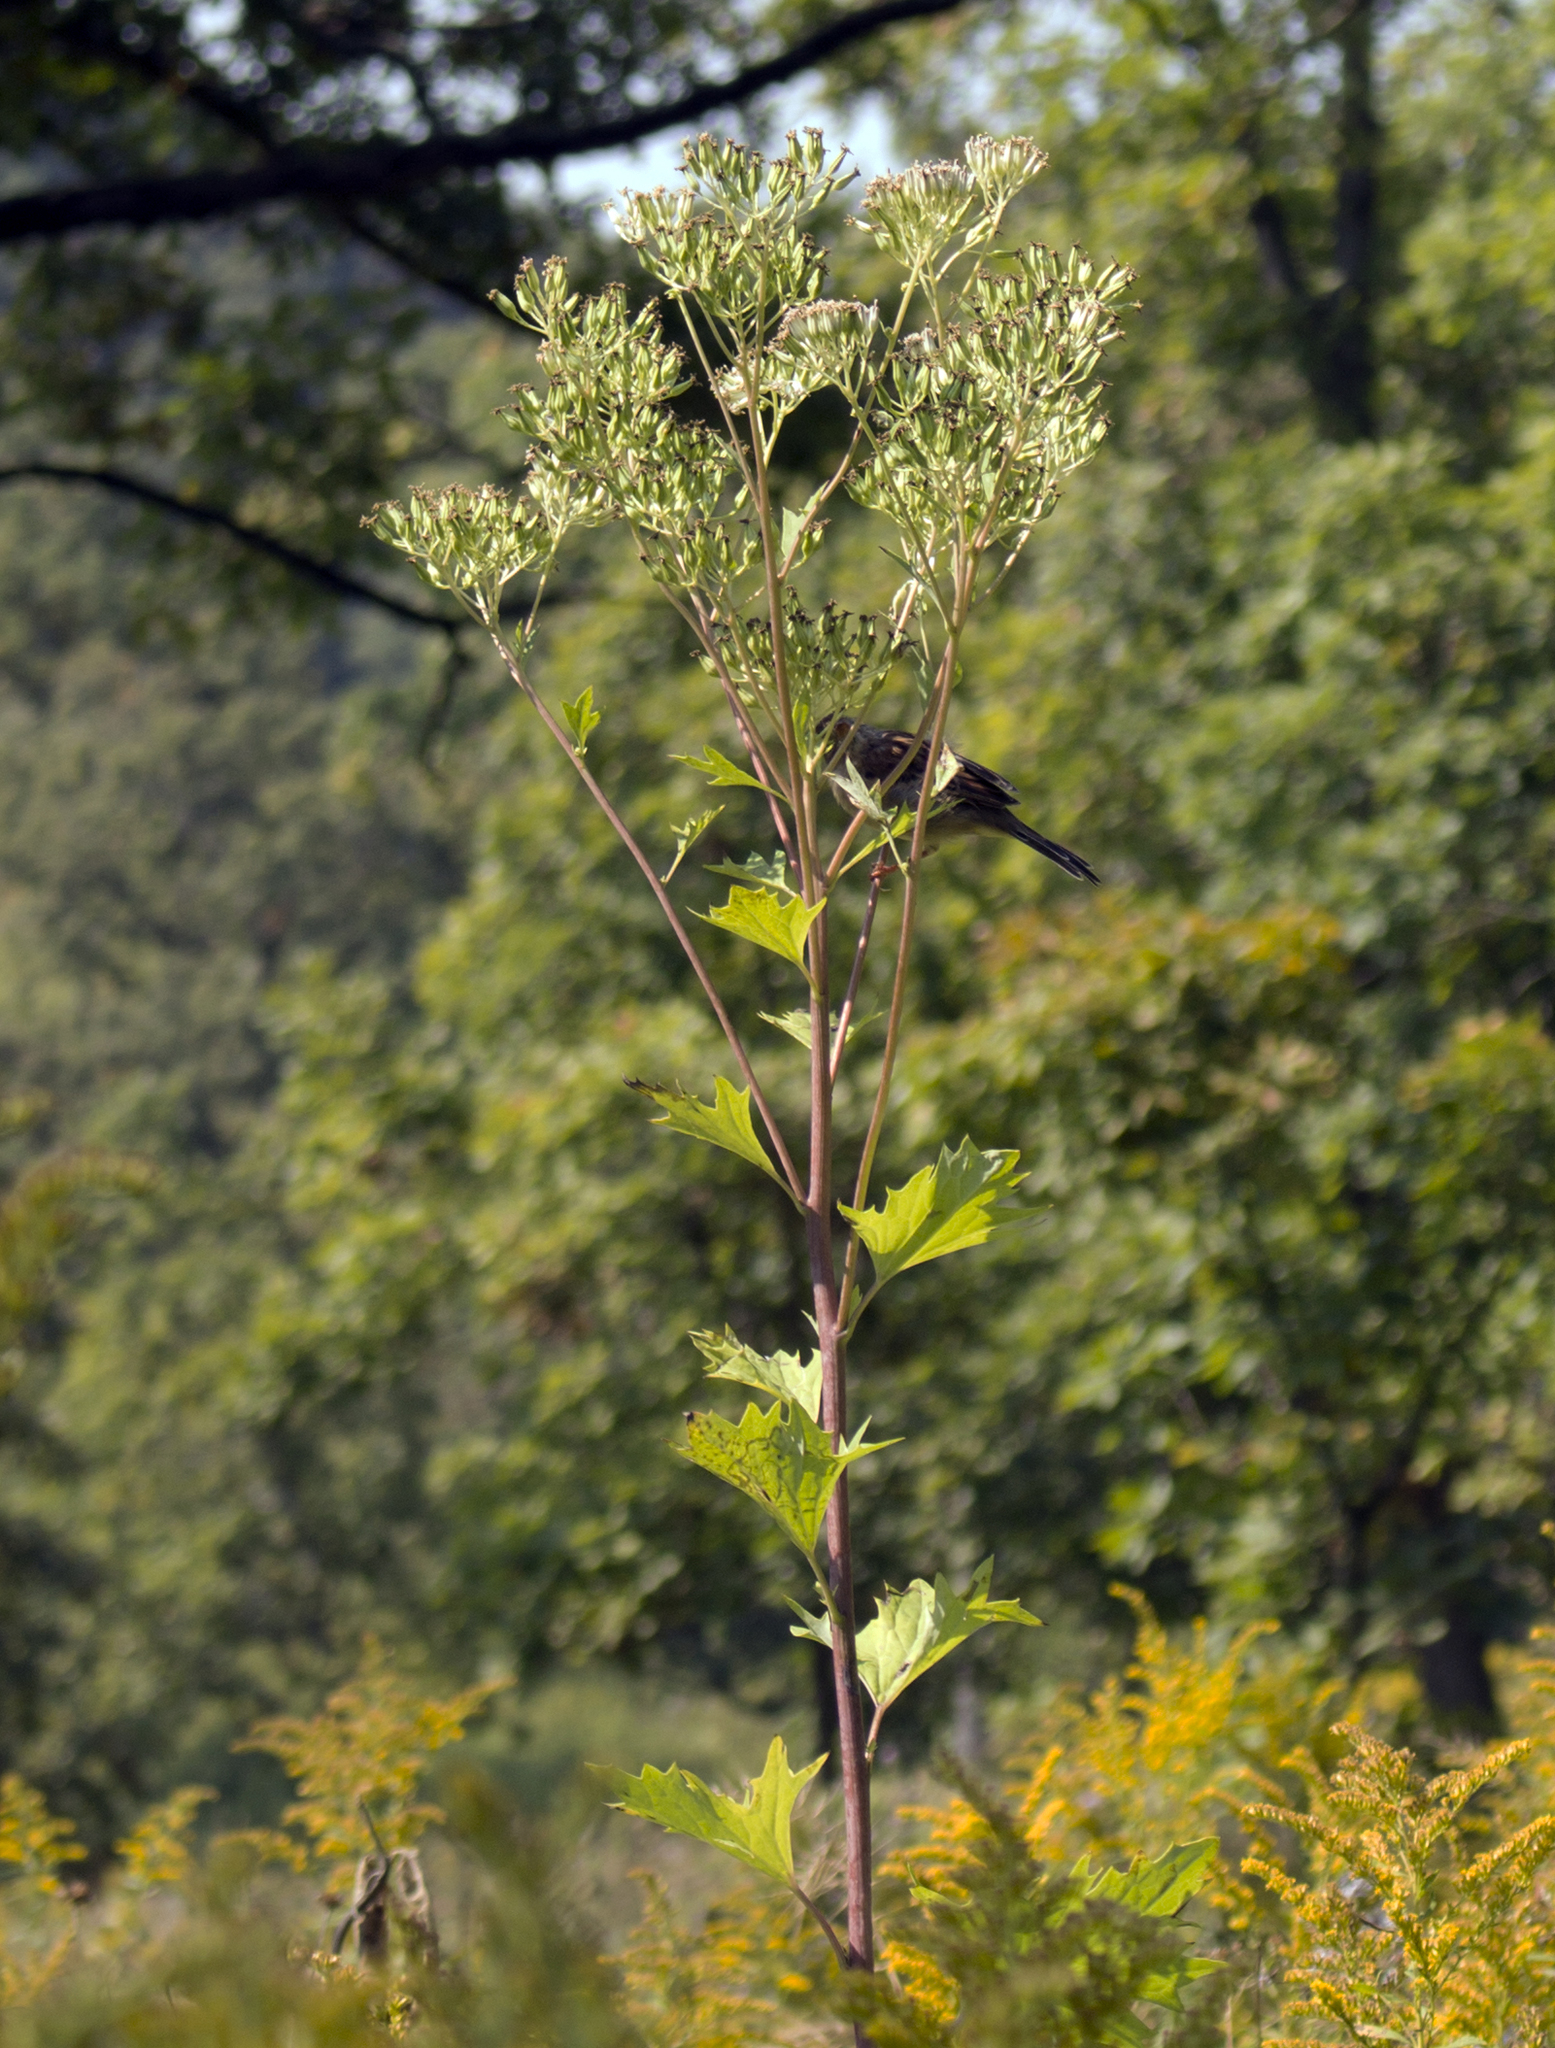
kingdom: Plantae
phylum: Tracheophyta
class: Magnoliopsida
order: Asterales
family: Asteraceae
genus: Arnoglossum
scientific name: Arnoglossum atriplicifolium
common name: Pale indian-plantain
